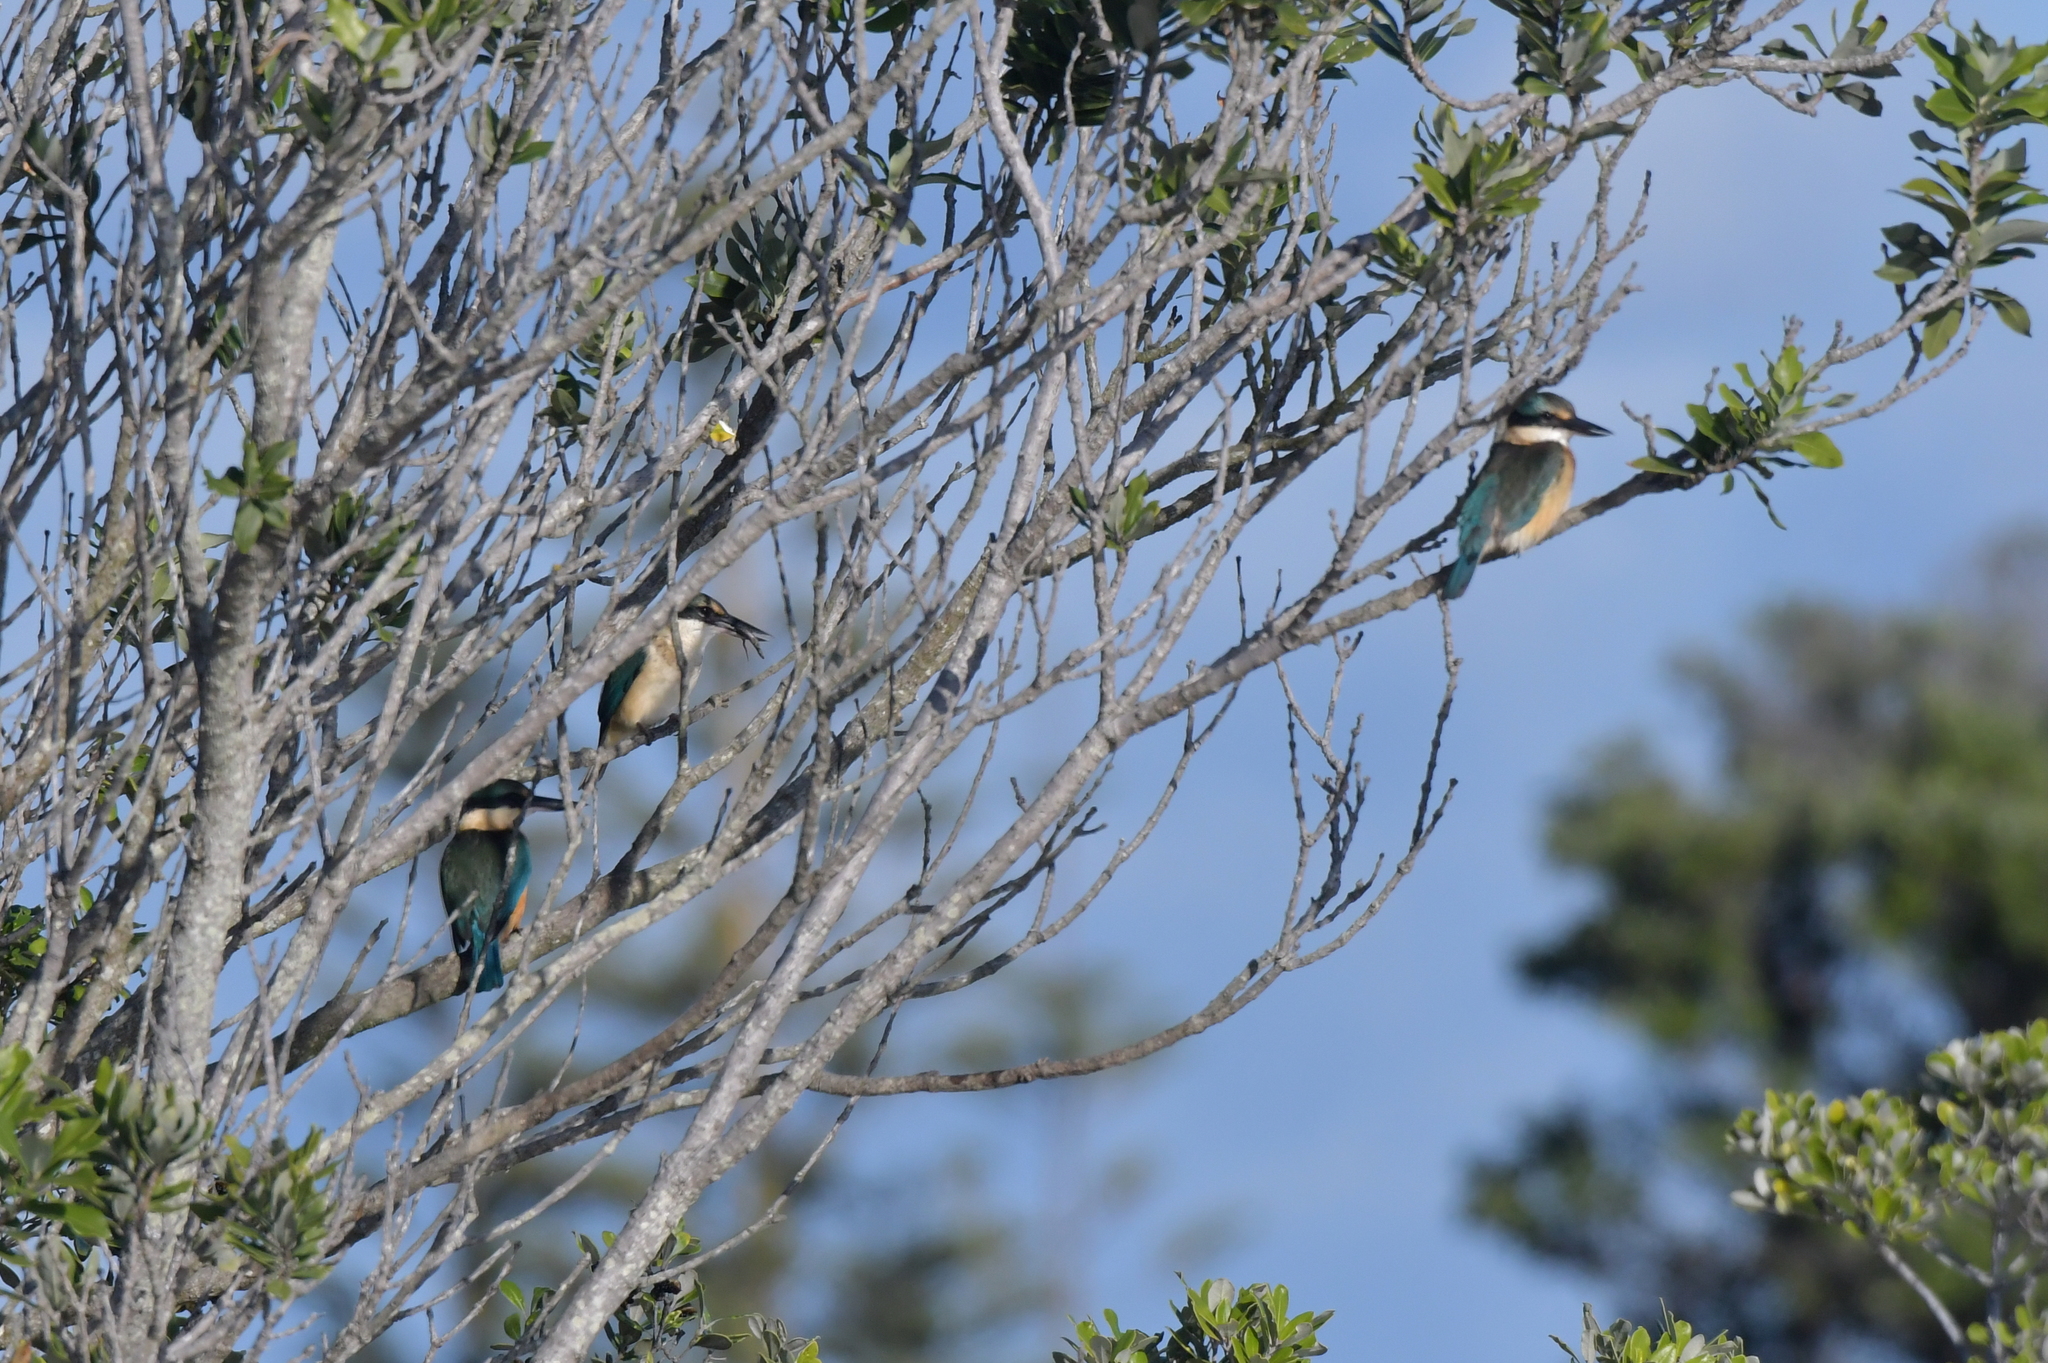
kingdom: Animalia
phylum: Chordata
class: Aves
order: Coraciiformes
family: Alcedinidae
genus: Todiramphus
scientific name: Todiramphus sanctus
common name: Sacred kingfisher
